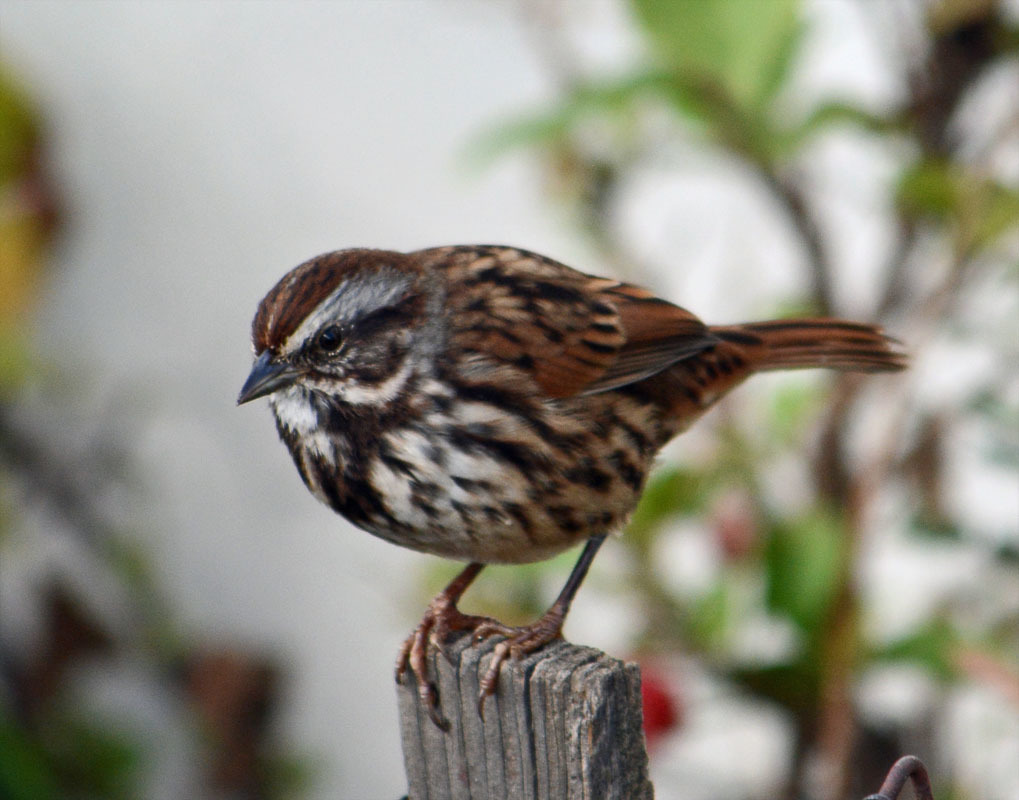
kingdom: Animalia
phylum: Chordata
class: Aves
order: Passeriformes
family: Passerellidae
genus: Melospiza
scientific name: Melospiza melodia
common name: Song sparrow
